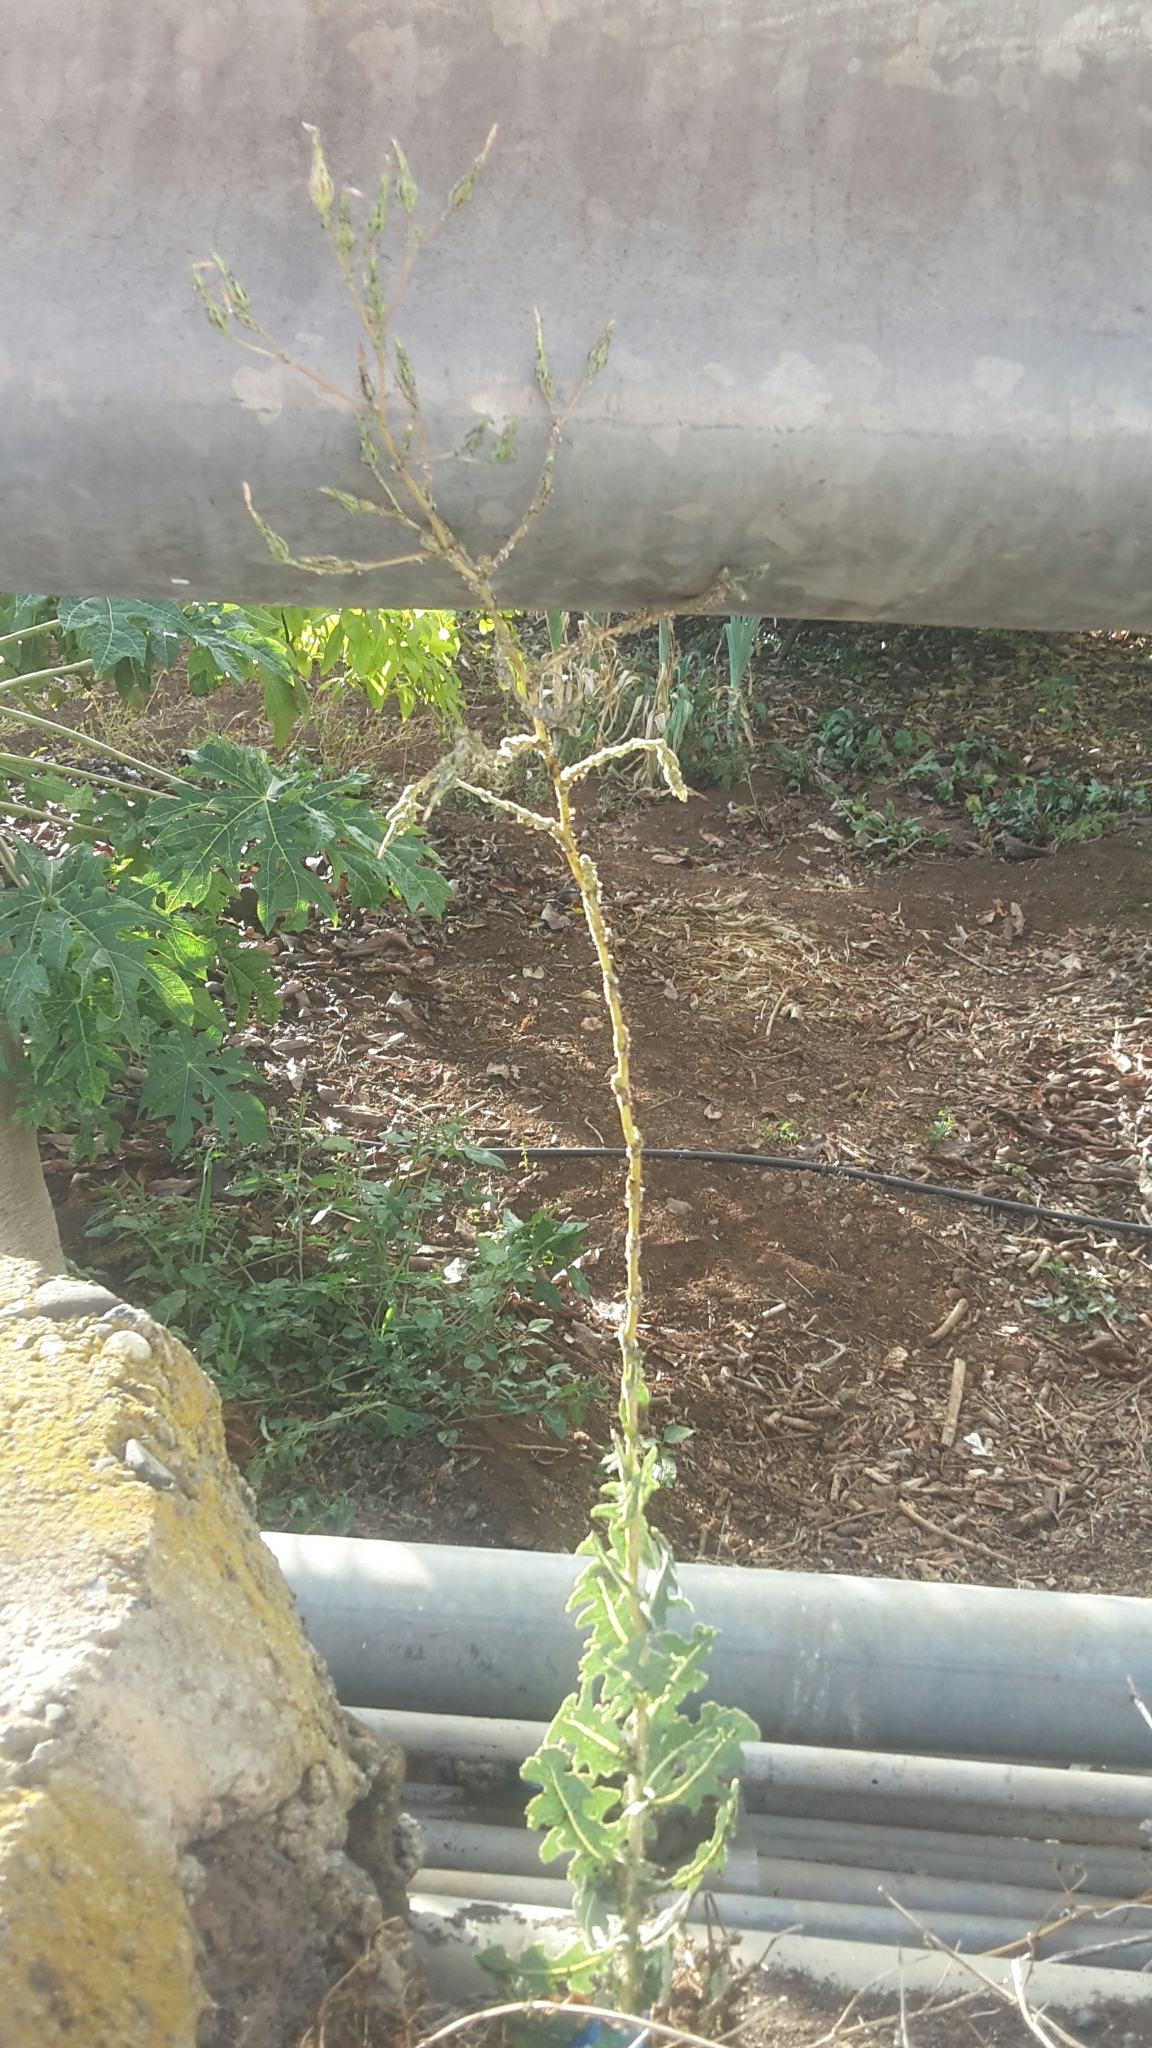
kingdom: Plantae
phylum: Tracheophyta
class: Magnoliopsida
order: Asterales
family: Asteraceae
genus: Lactuca
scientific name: Lactuca serriola
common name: Prickly lettuce
